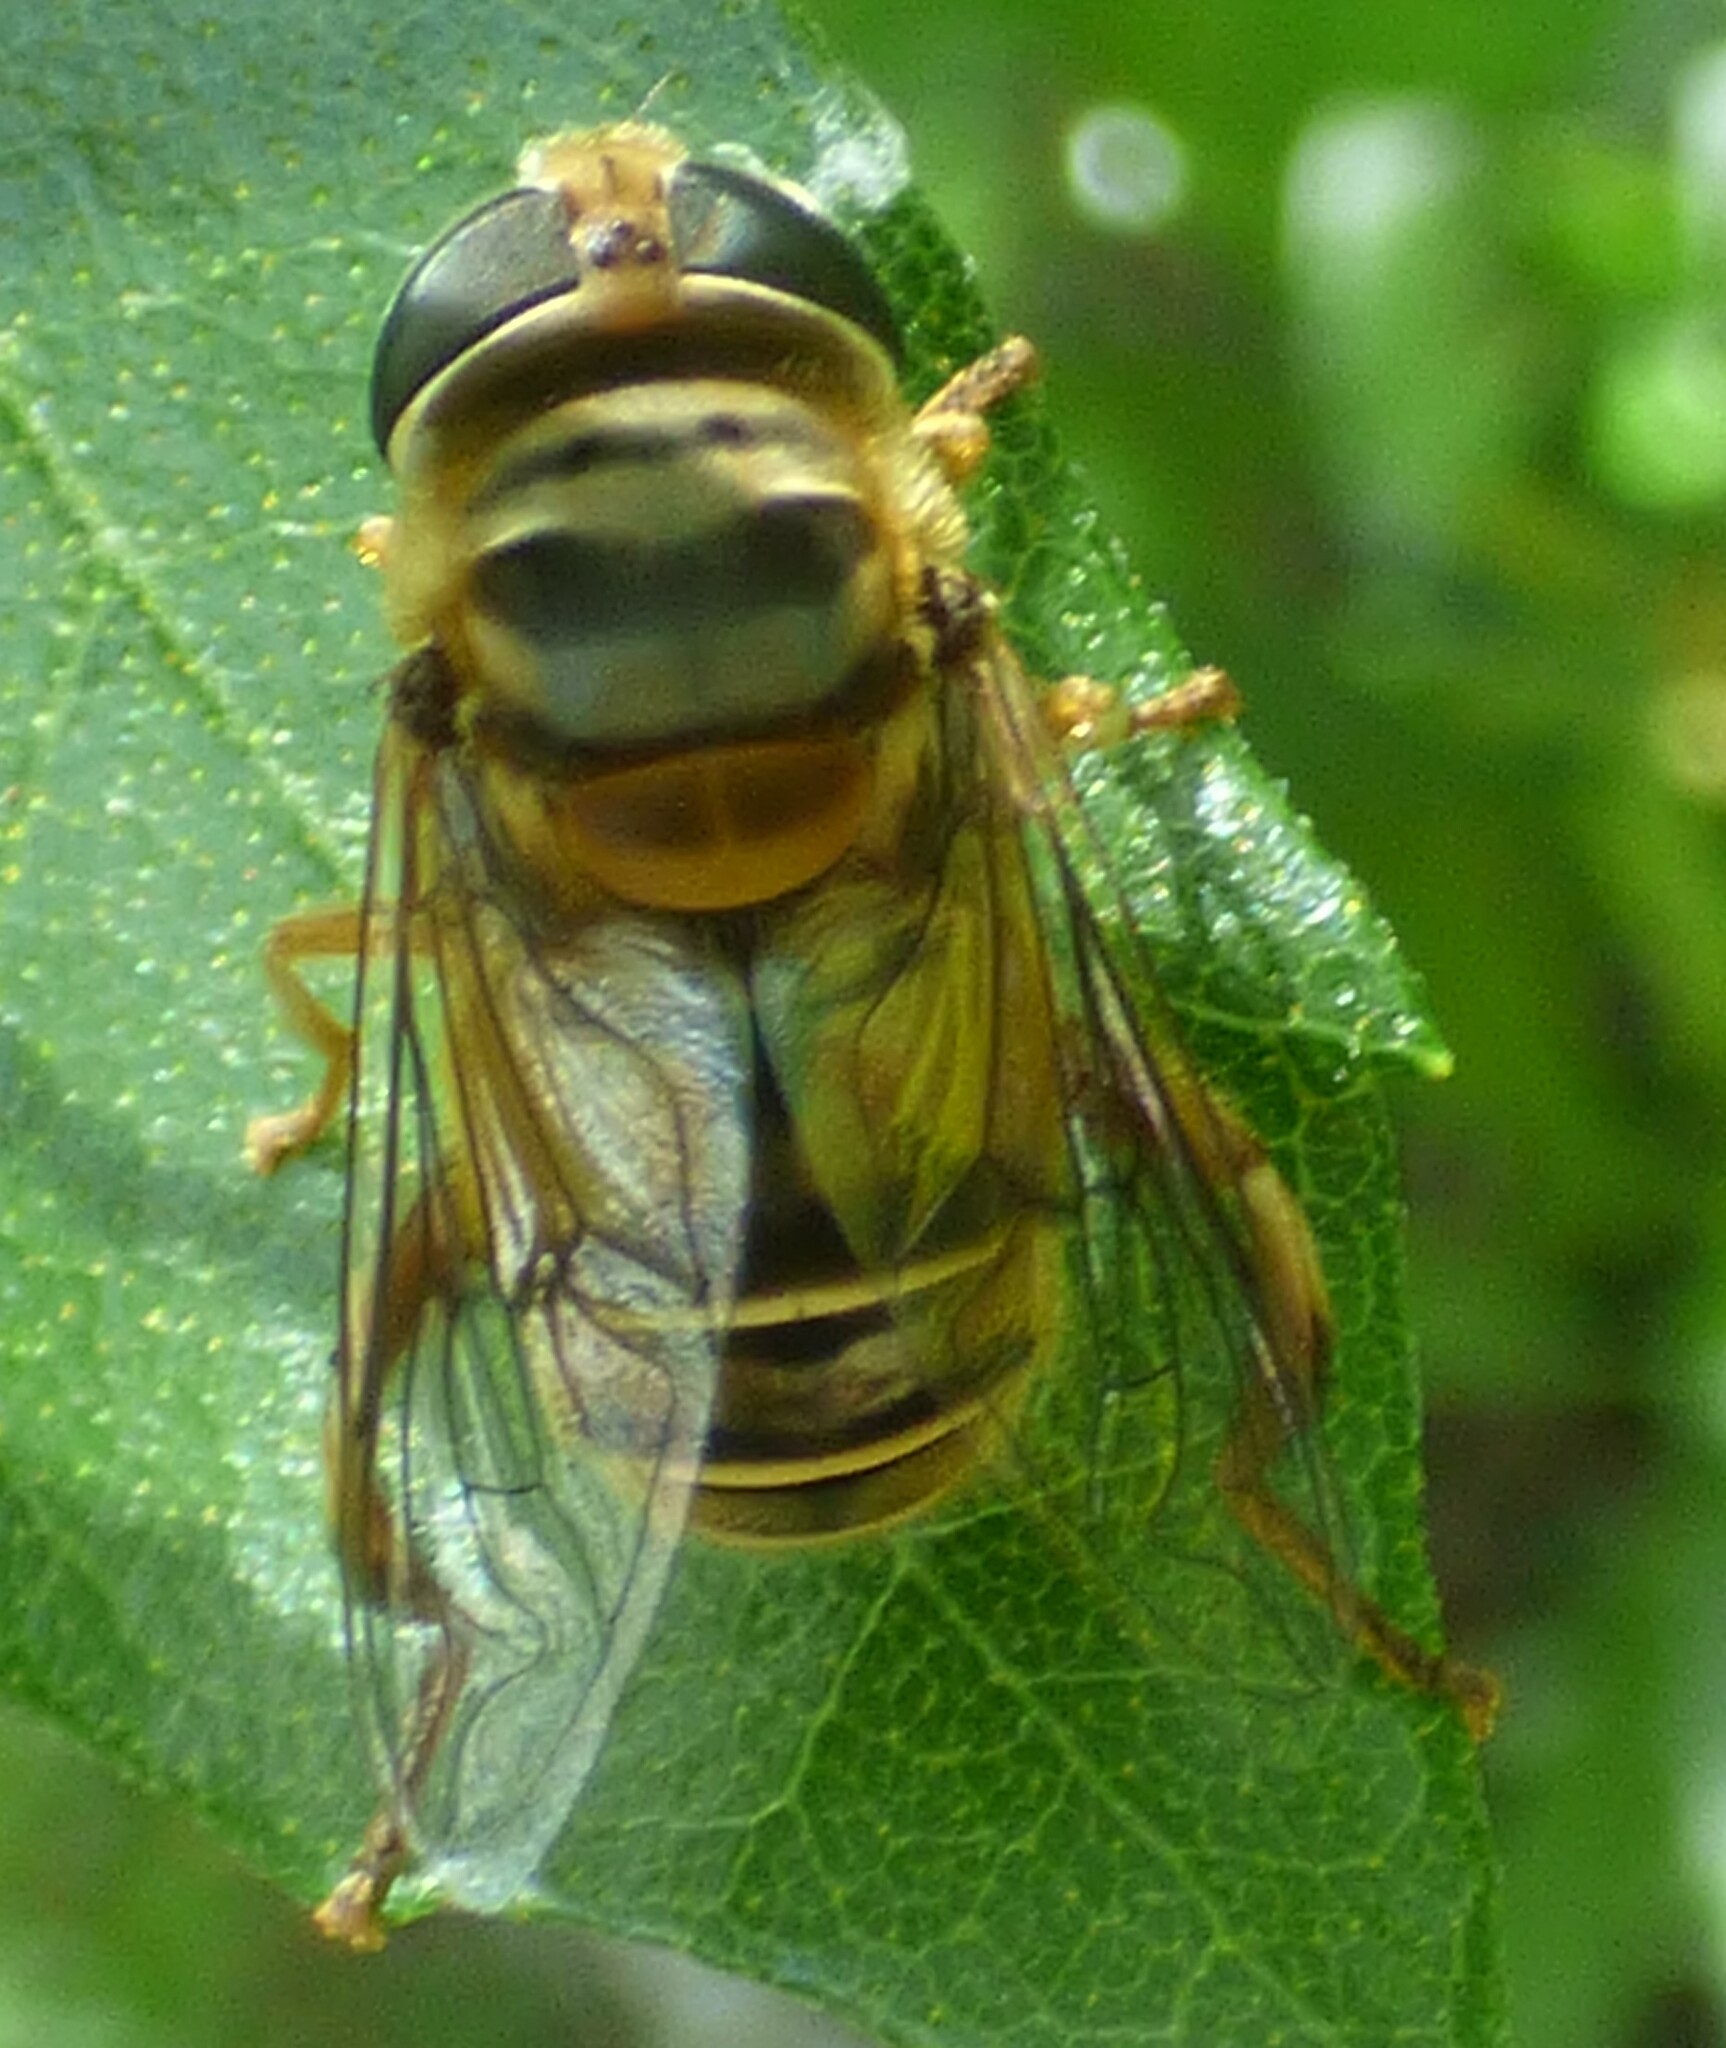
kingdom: Animalia
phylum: Arthropoda
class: Insecta
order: Diptera
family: Syrphidae
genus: Palpada
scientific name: Palpada vinetorum
